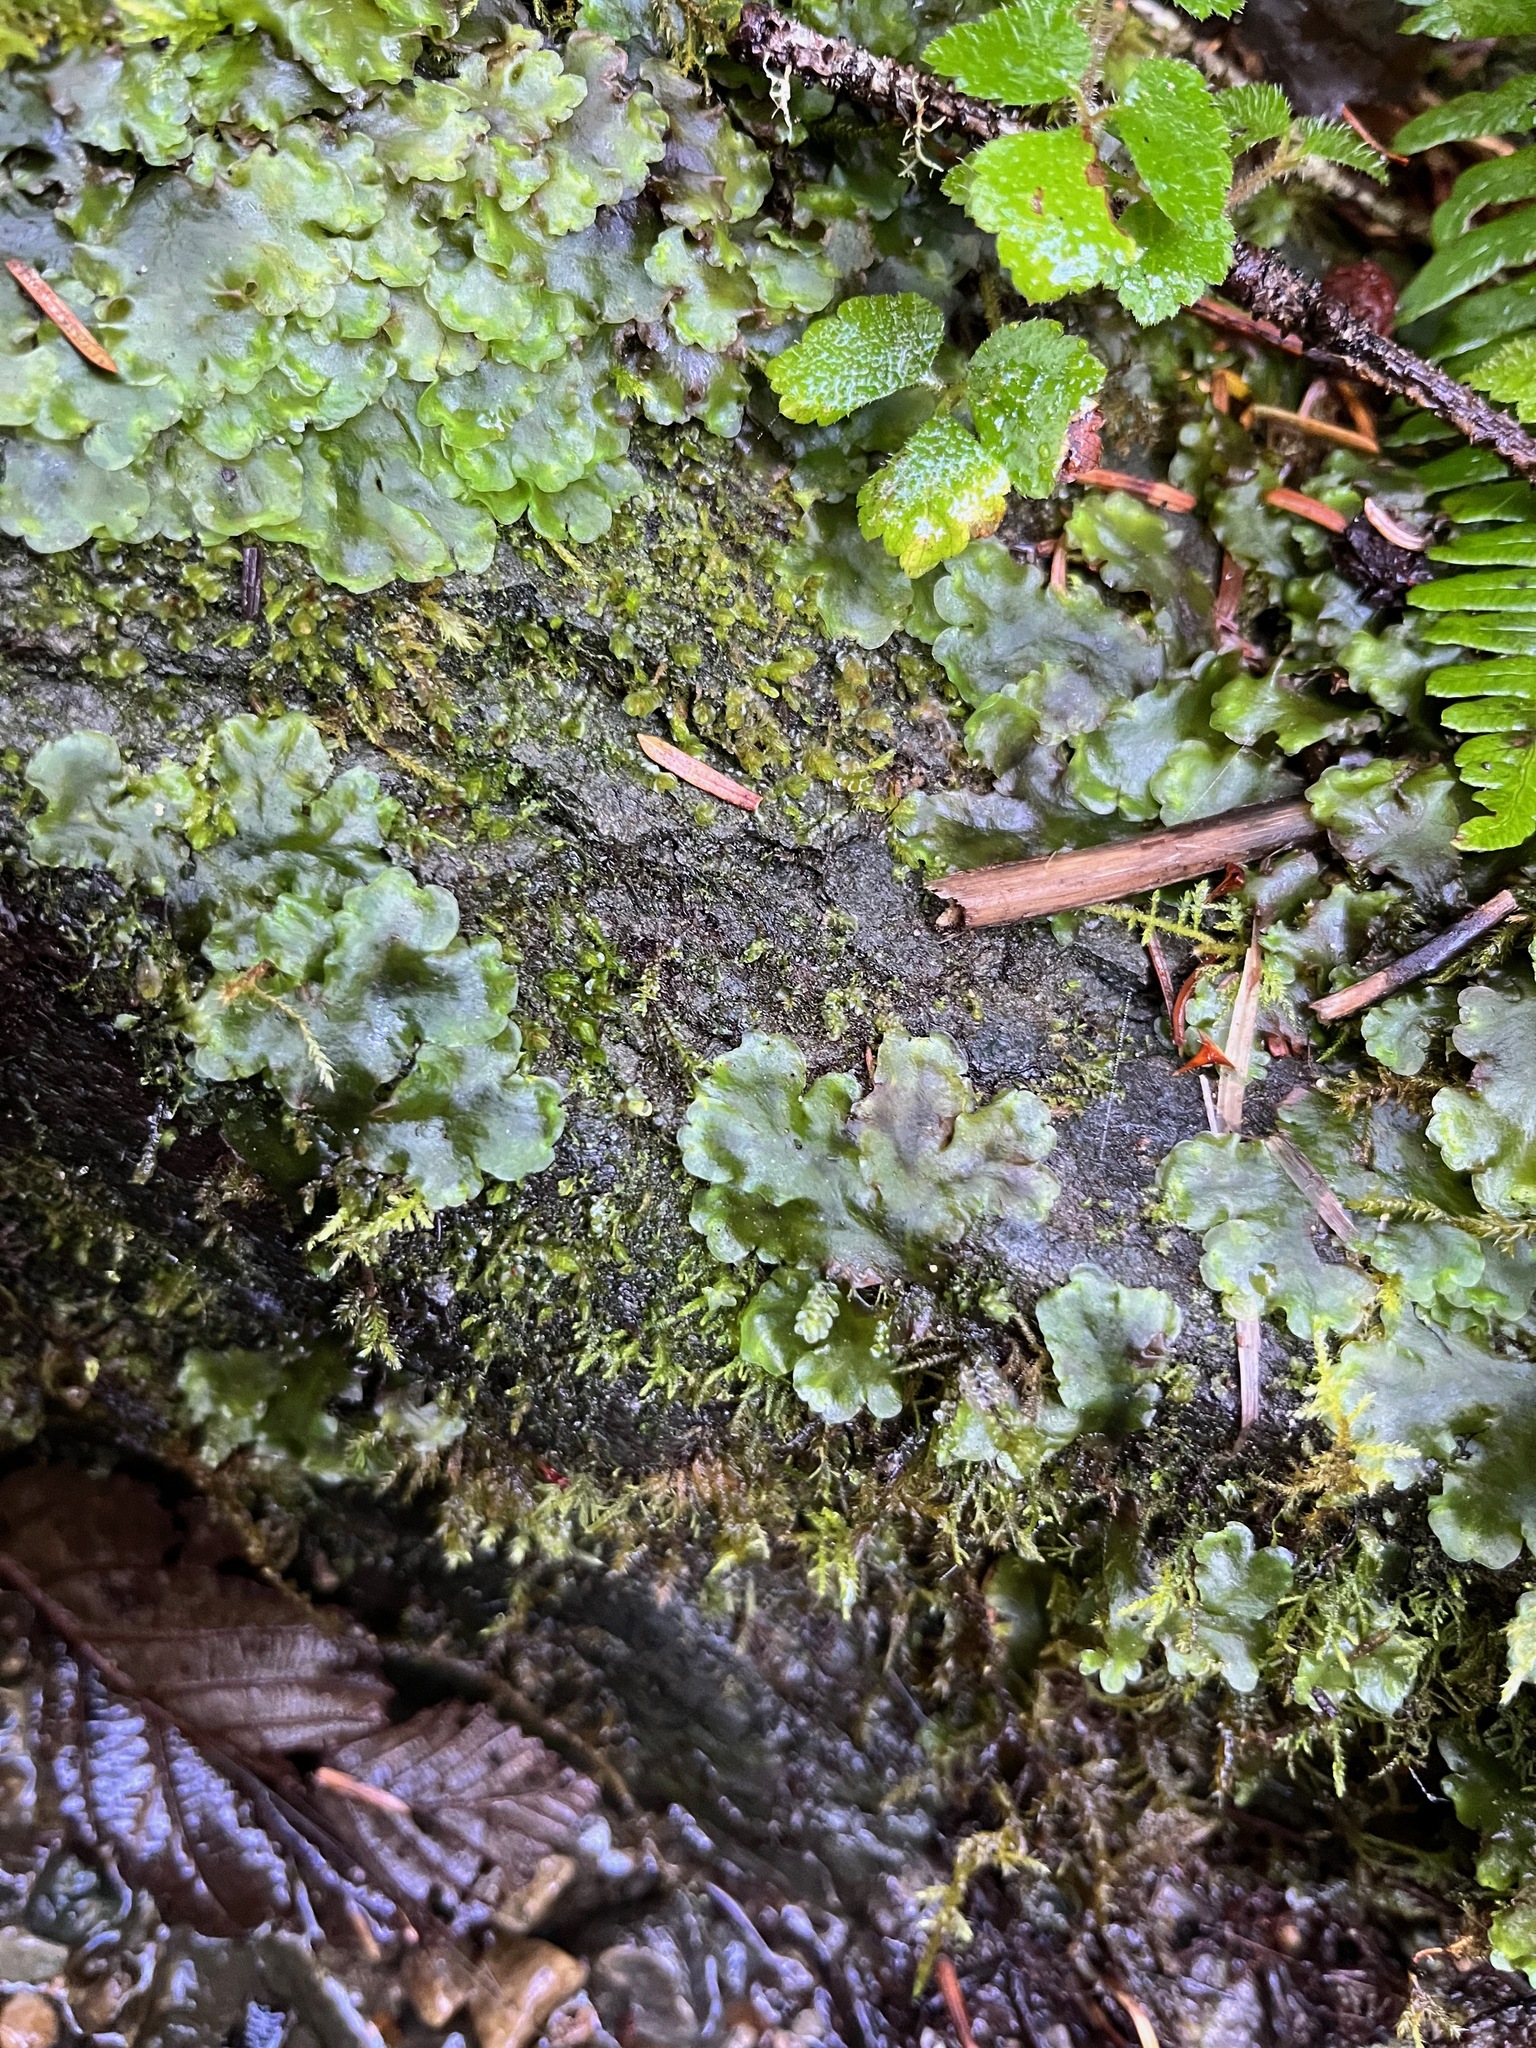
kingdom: Plantae
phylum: Marchantiophyta
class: Jungermanniopsida
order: Pelliales
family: Pelliaceae
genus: Pellia
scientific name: Pellia neesiana
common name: Nees  pellia
